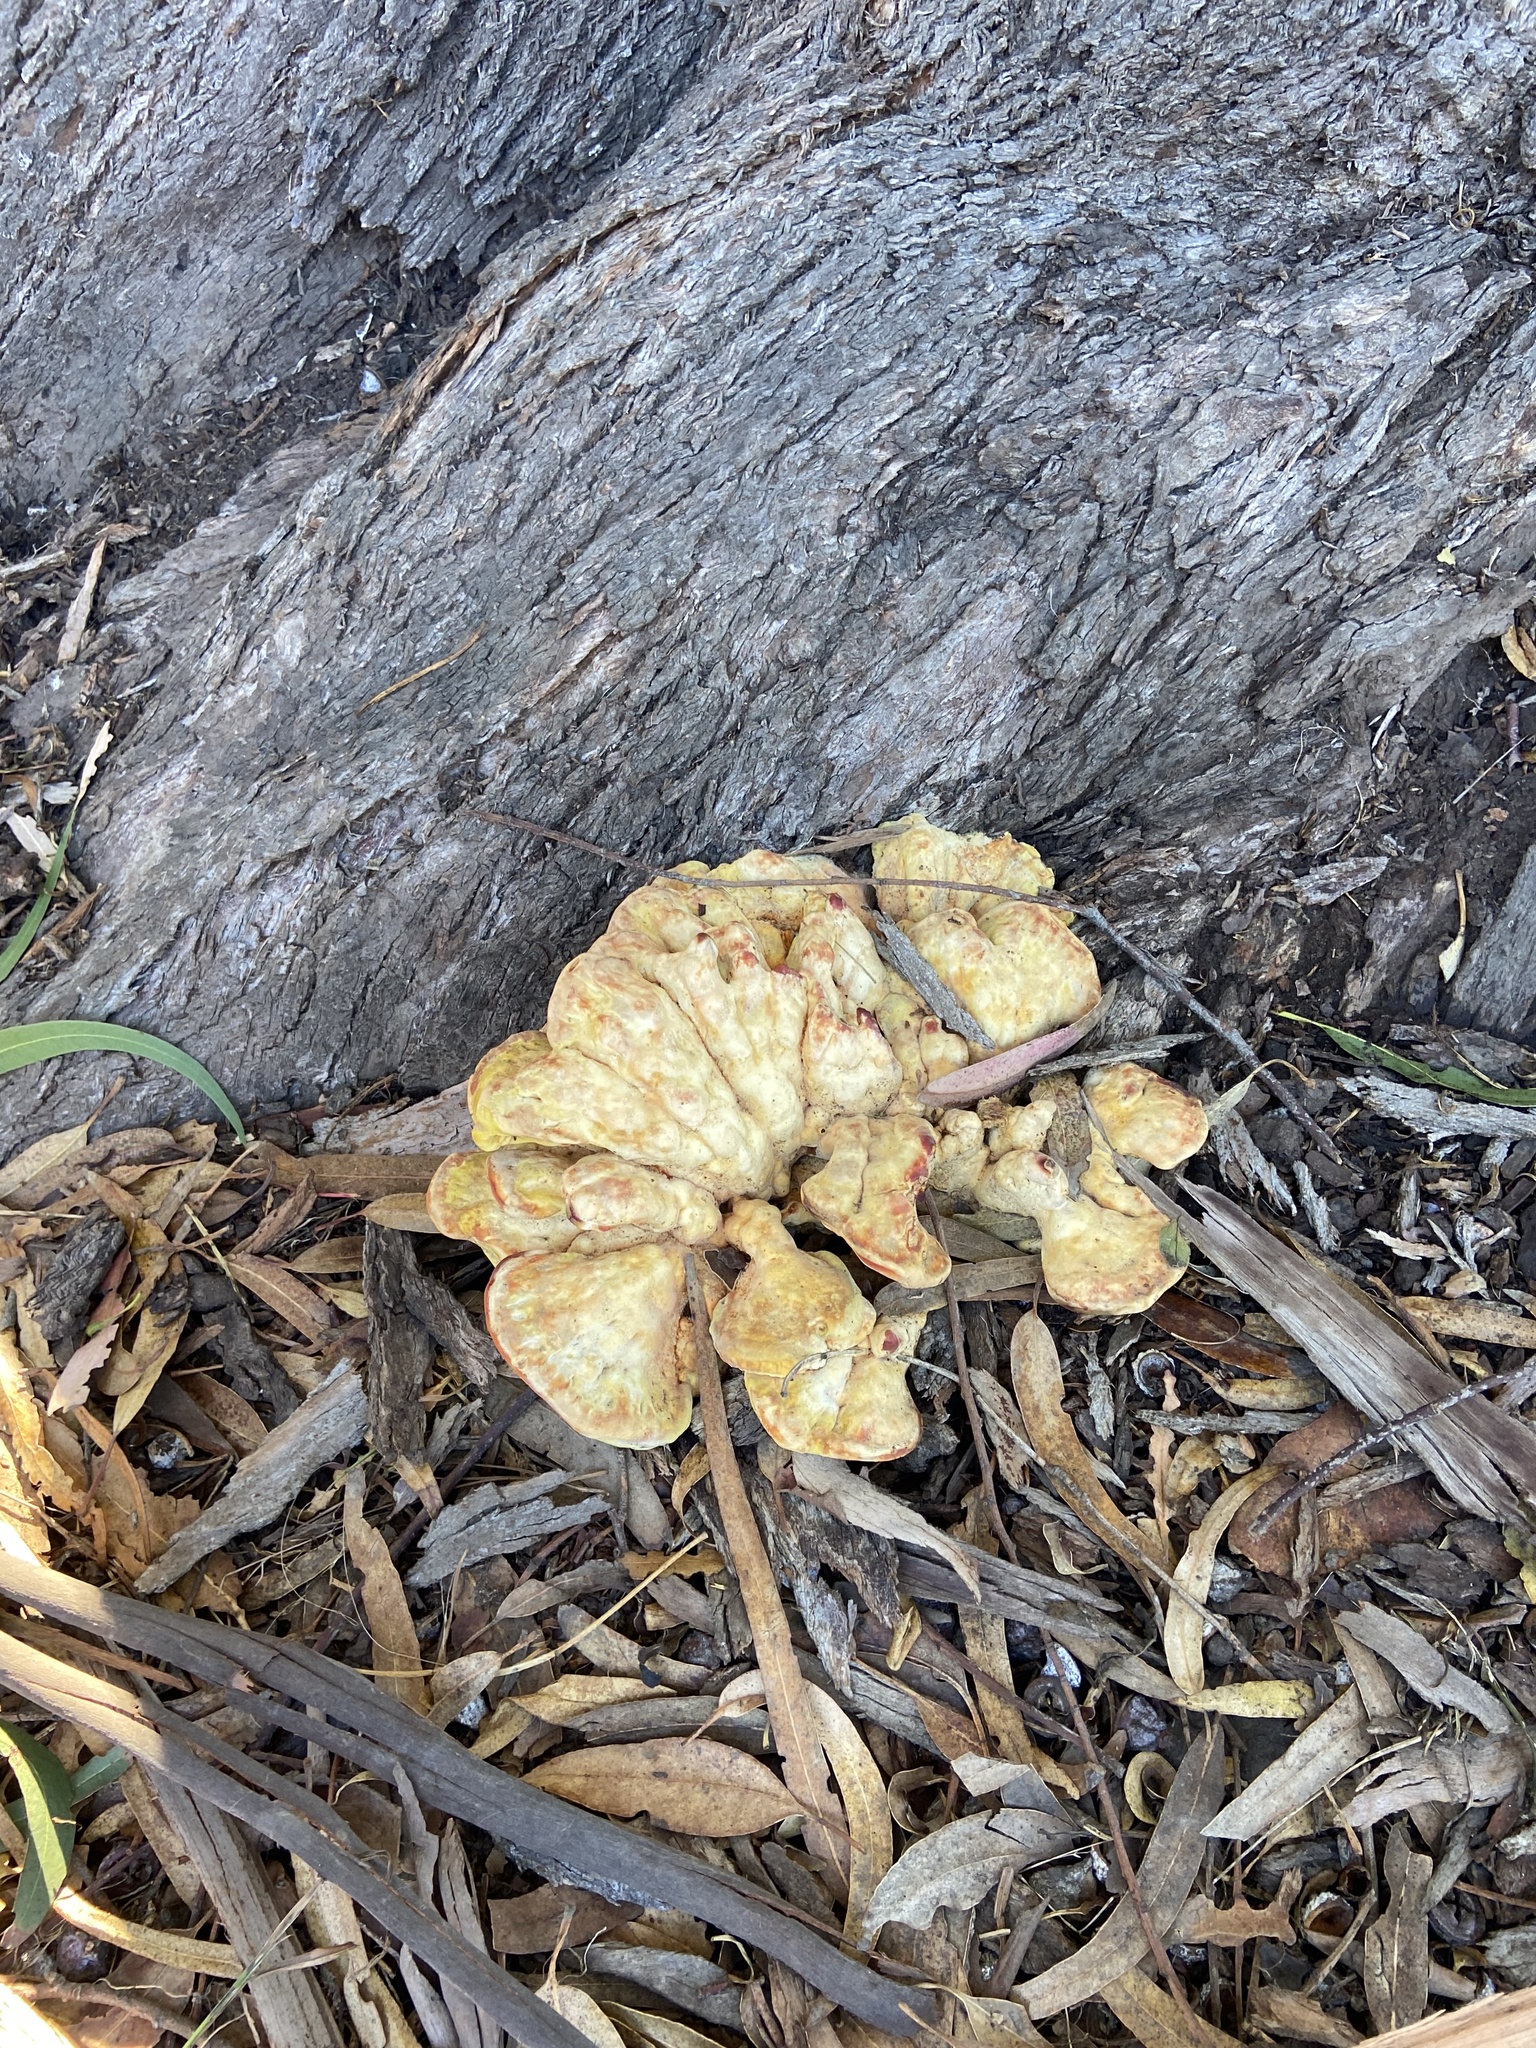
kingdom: Fungi
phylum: Basidiomycota
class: Agaricomycetes
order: Polyporales
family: Laetiporaceae
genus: Laetiporus
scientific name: Laetiporus gilbertsonii
